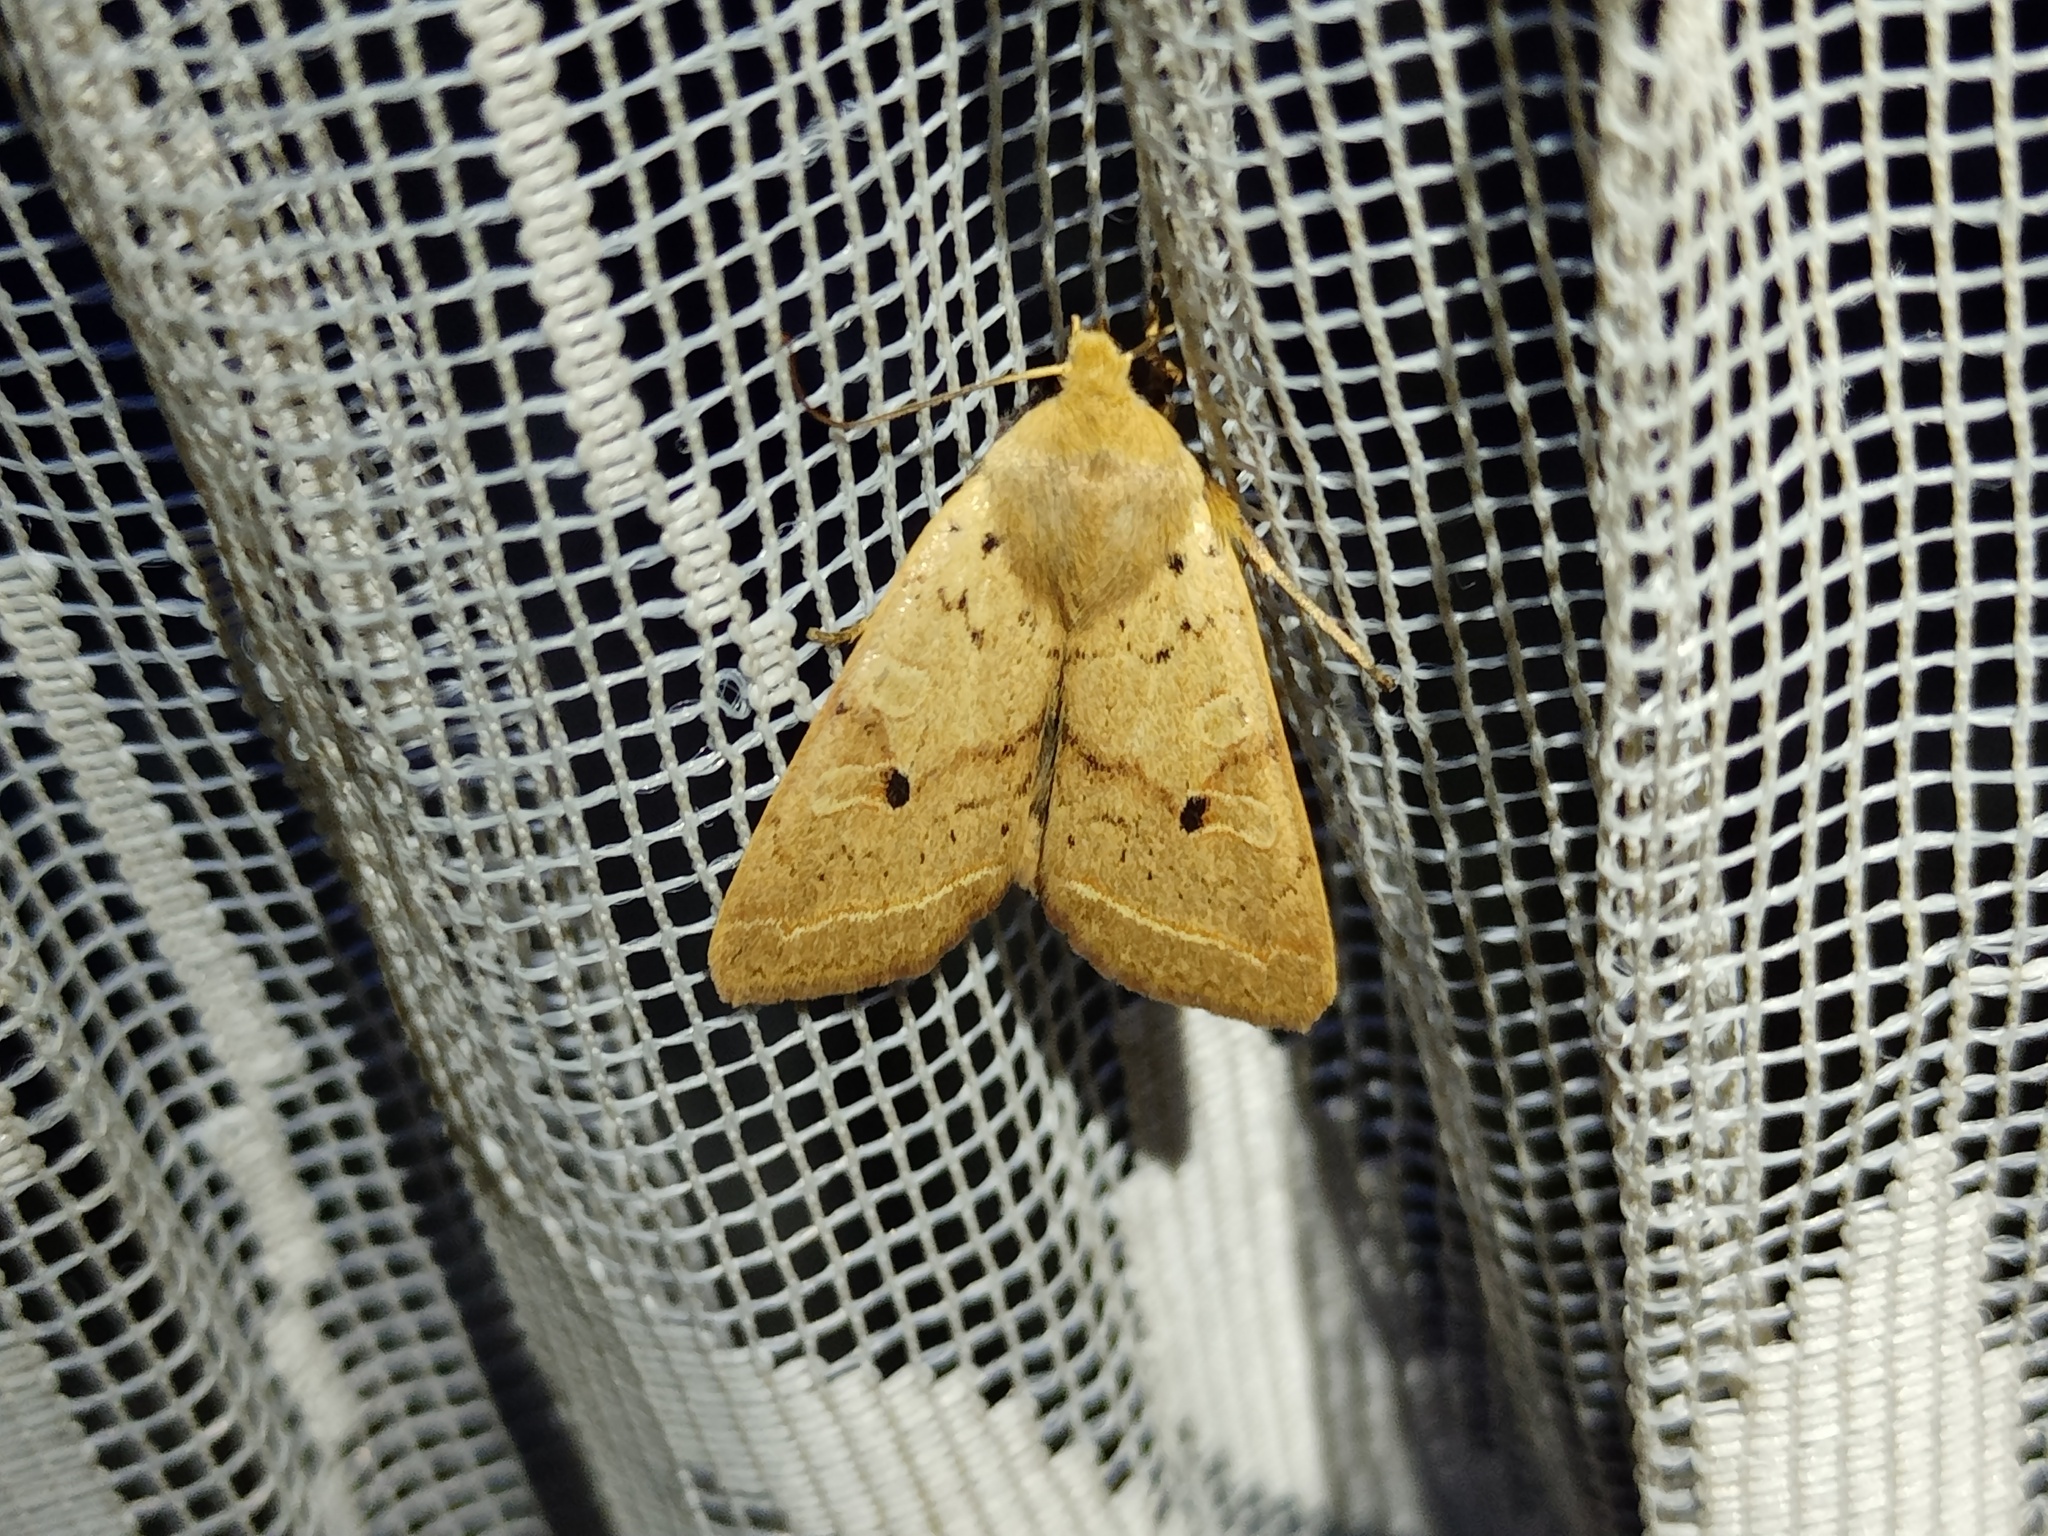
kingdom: Animalia
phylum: Arthropoda
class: Insecta
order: Lepidoptera
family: Noctuidae
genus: Agrochola
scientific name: Agrochola macilenta
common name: Yellow-line quaker
